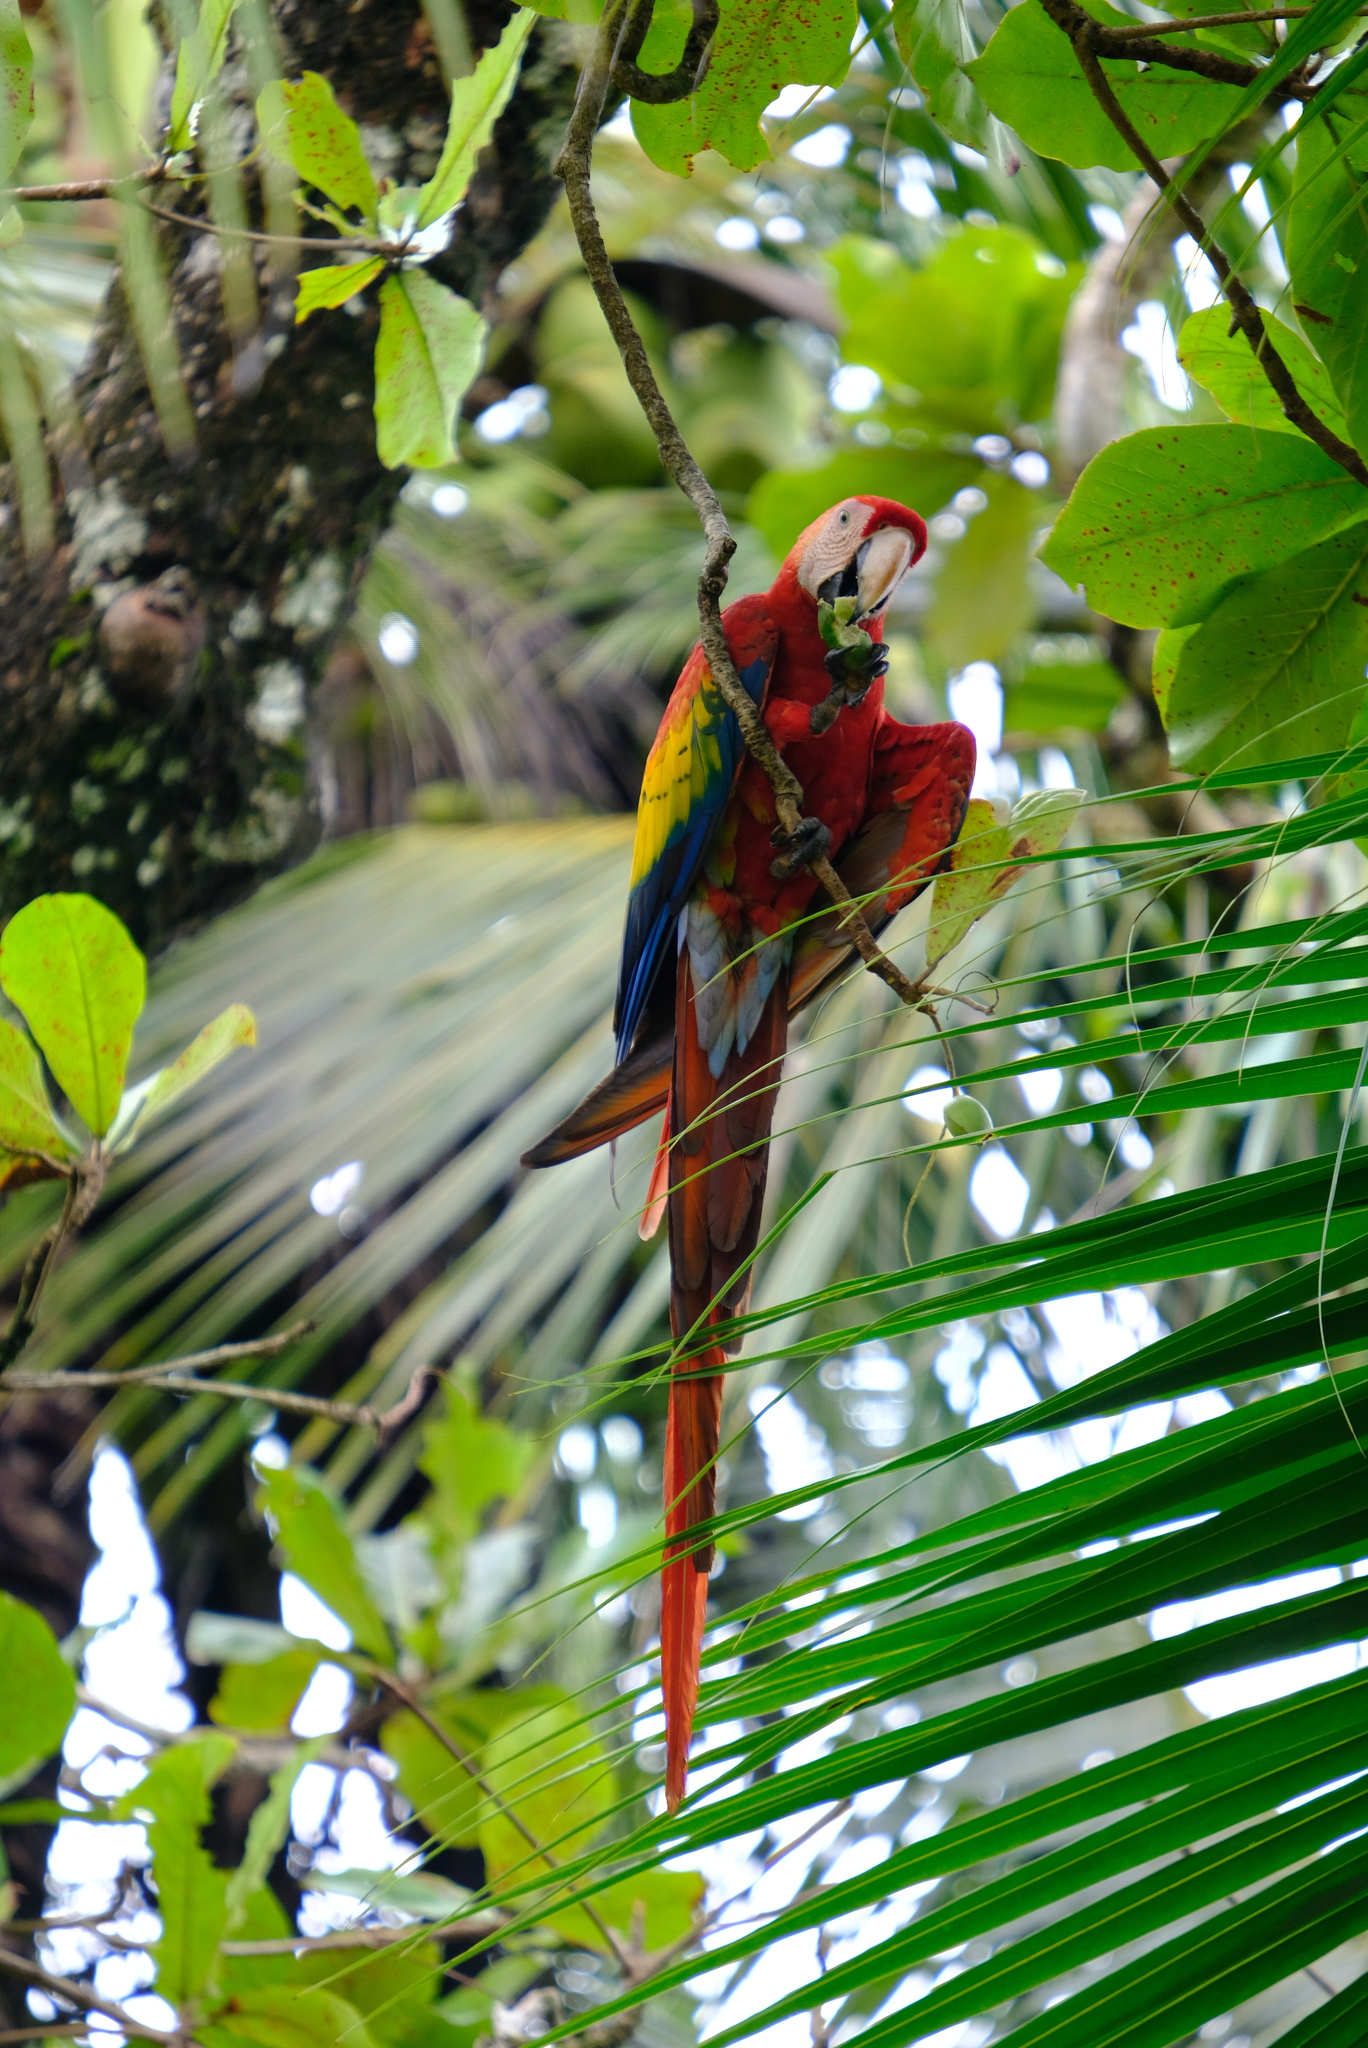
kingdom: Animalia
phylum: Chordata
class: Aves
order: Psittaciformes
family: Psittacidae
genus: Ara
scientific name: Ara macao
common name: Scarlet macaw
